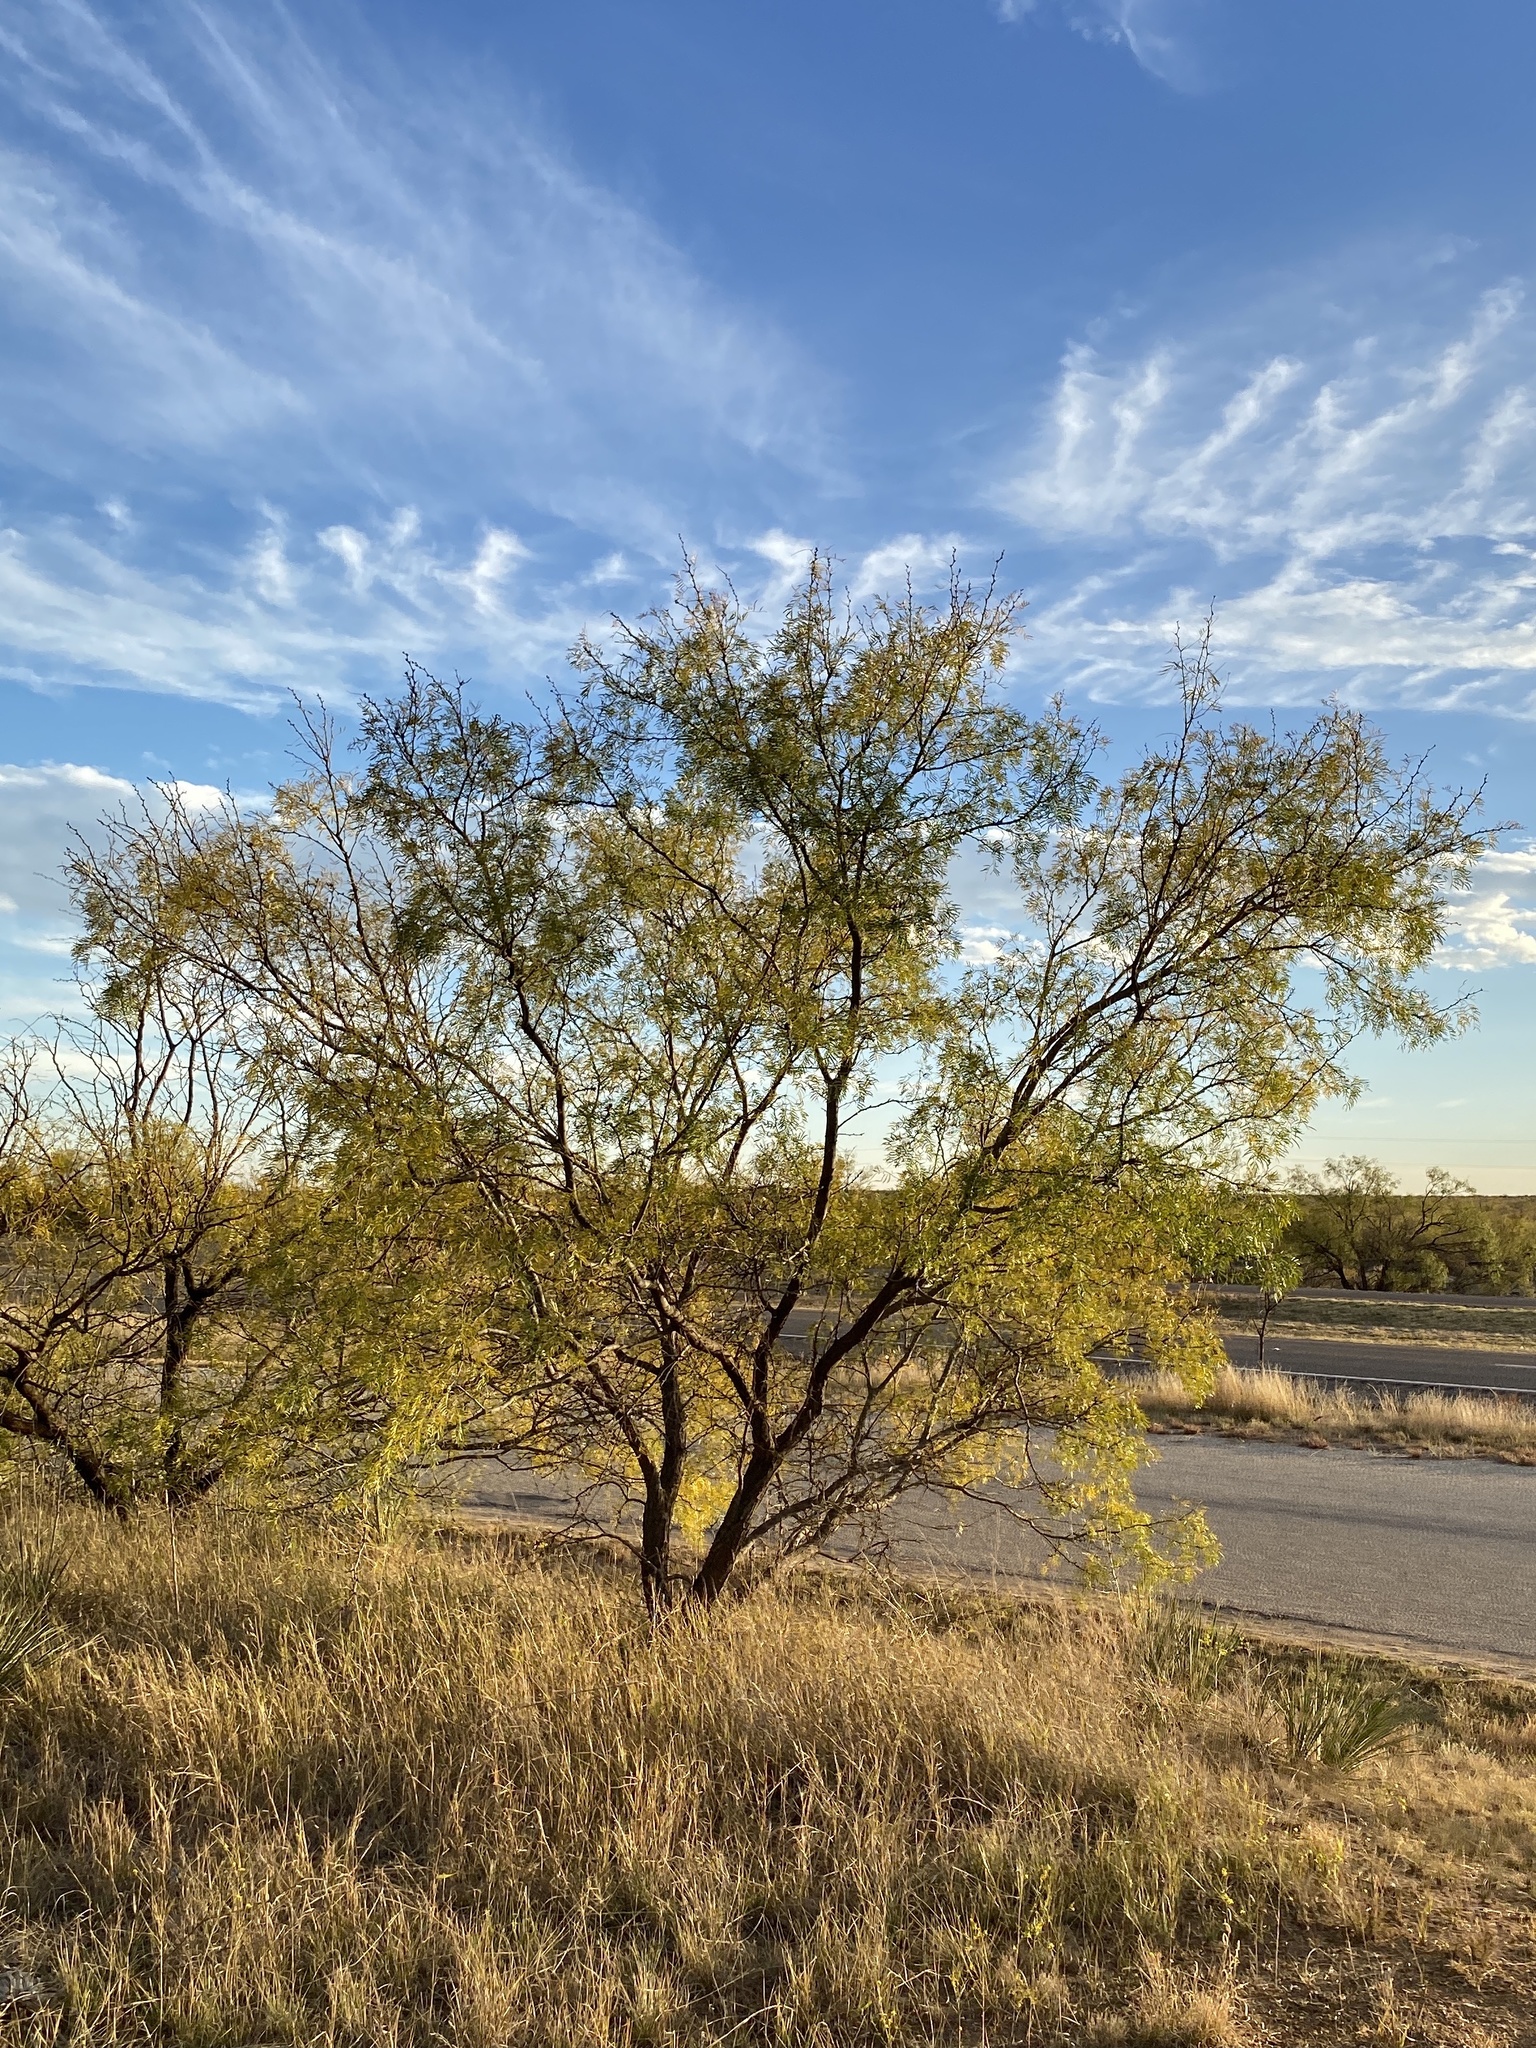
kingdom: Plantae
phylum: Tracheophyta
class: Magnoliopsida
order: Fabales
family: Fabaceae
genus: Prosopis
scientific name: Prosopis glandulosa
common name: Honey mesquite
